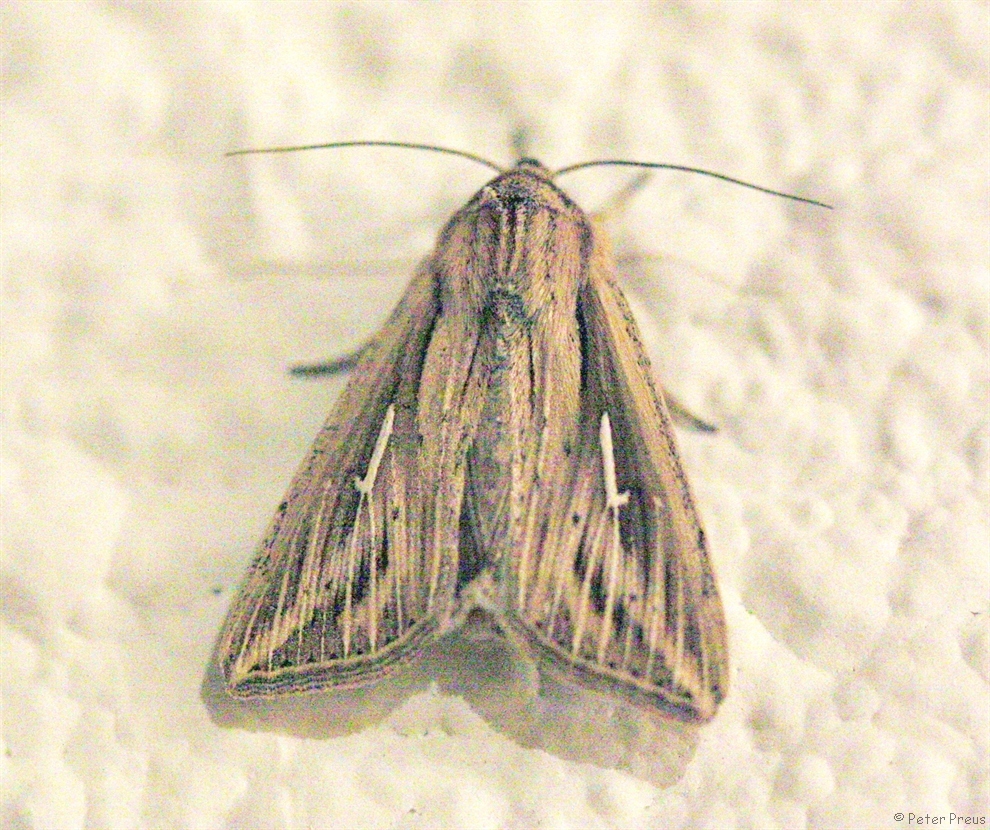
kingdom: Animalia
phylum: Arthropoda
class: Insecta
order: Lepidoptera
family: Noctuidae
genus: Mythimna
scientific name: Mythimna l-album
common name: L-album wainscot
